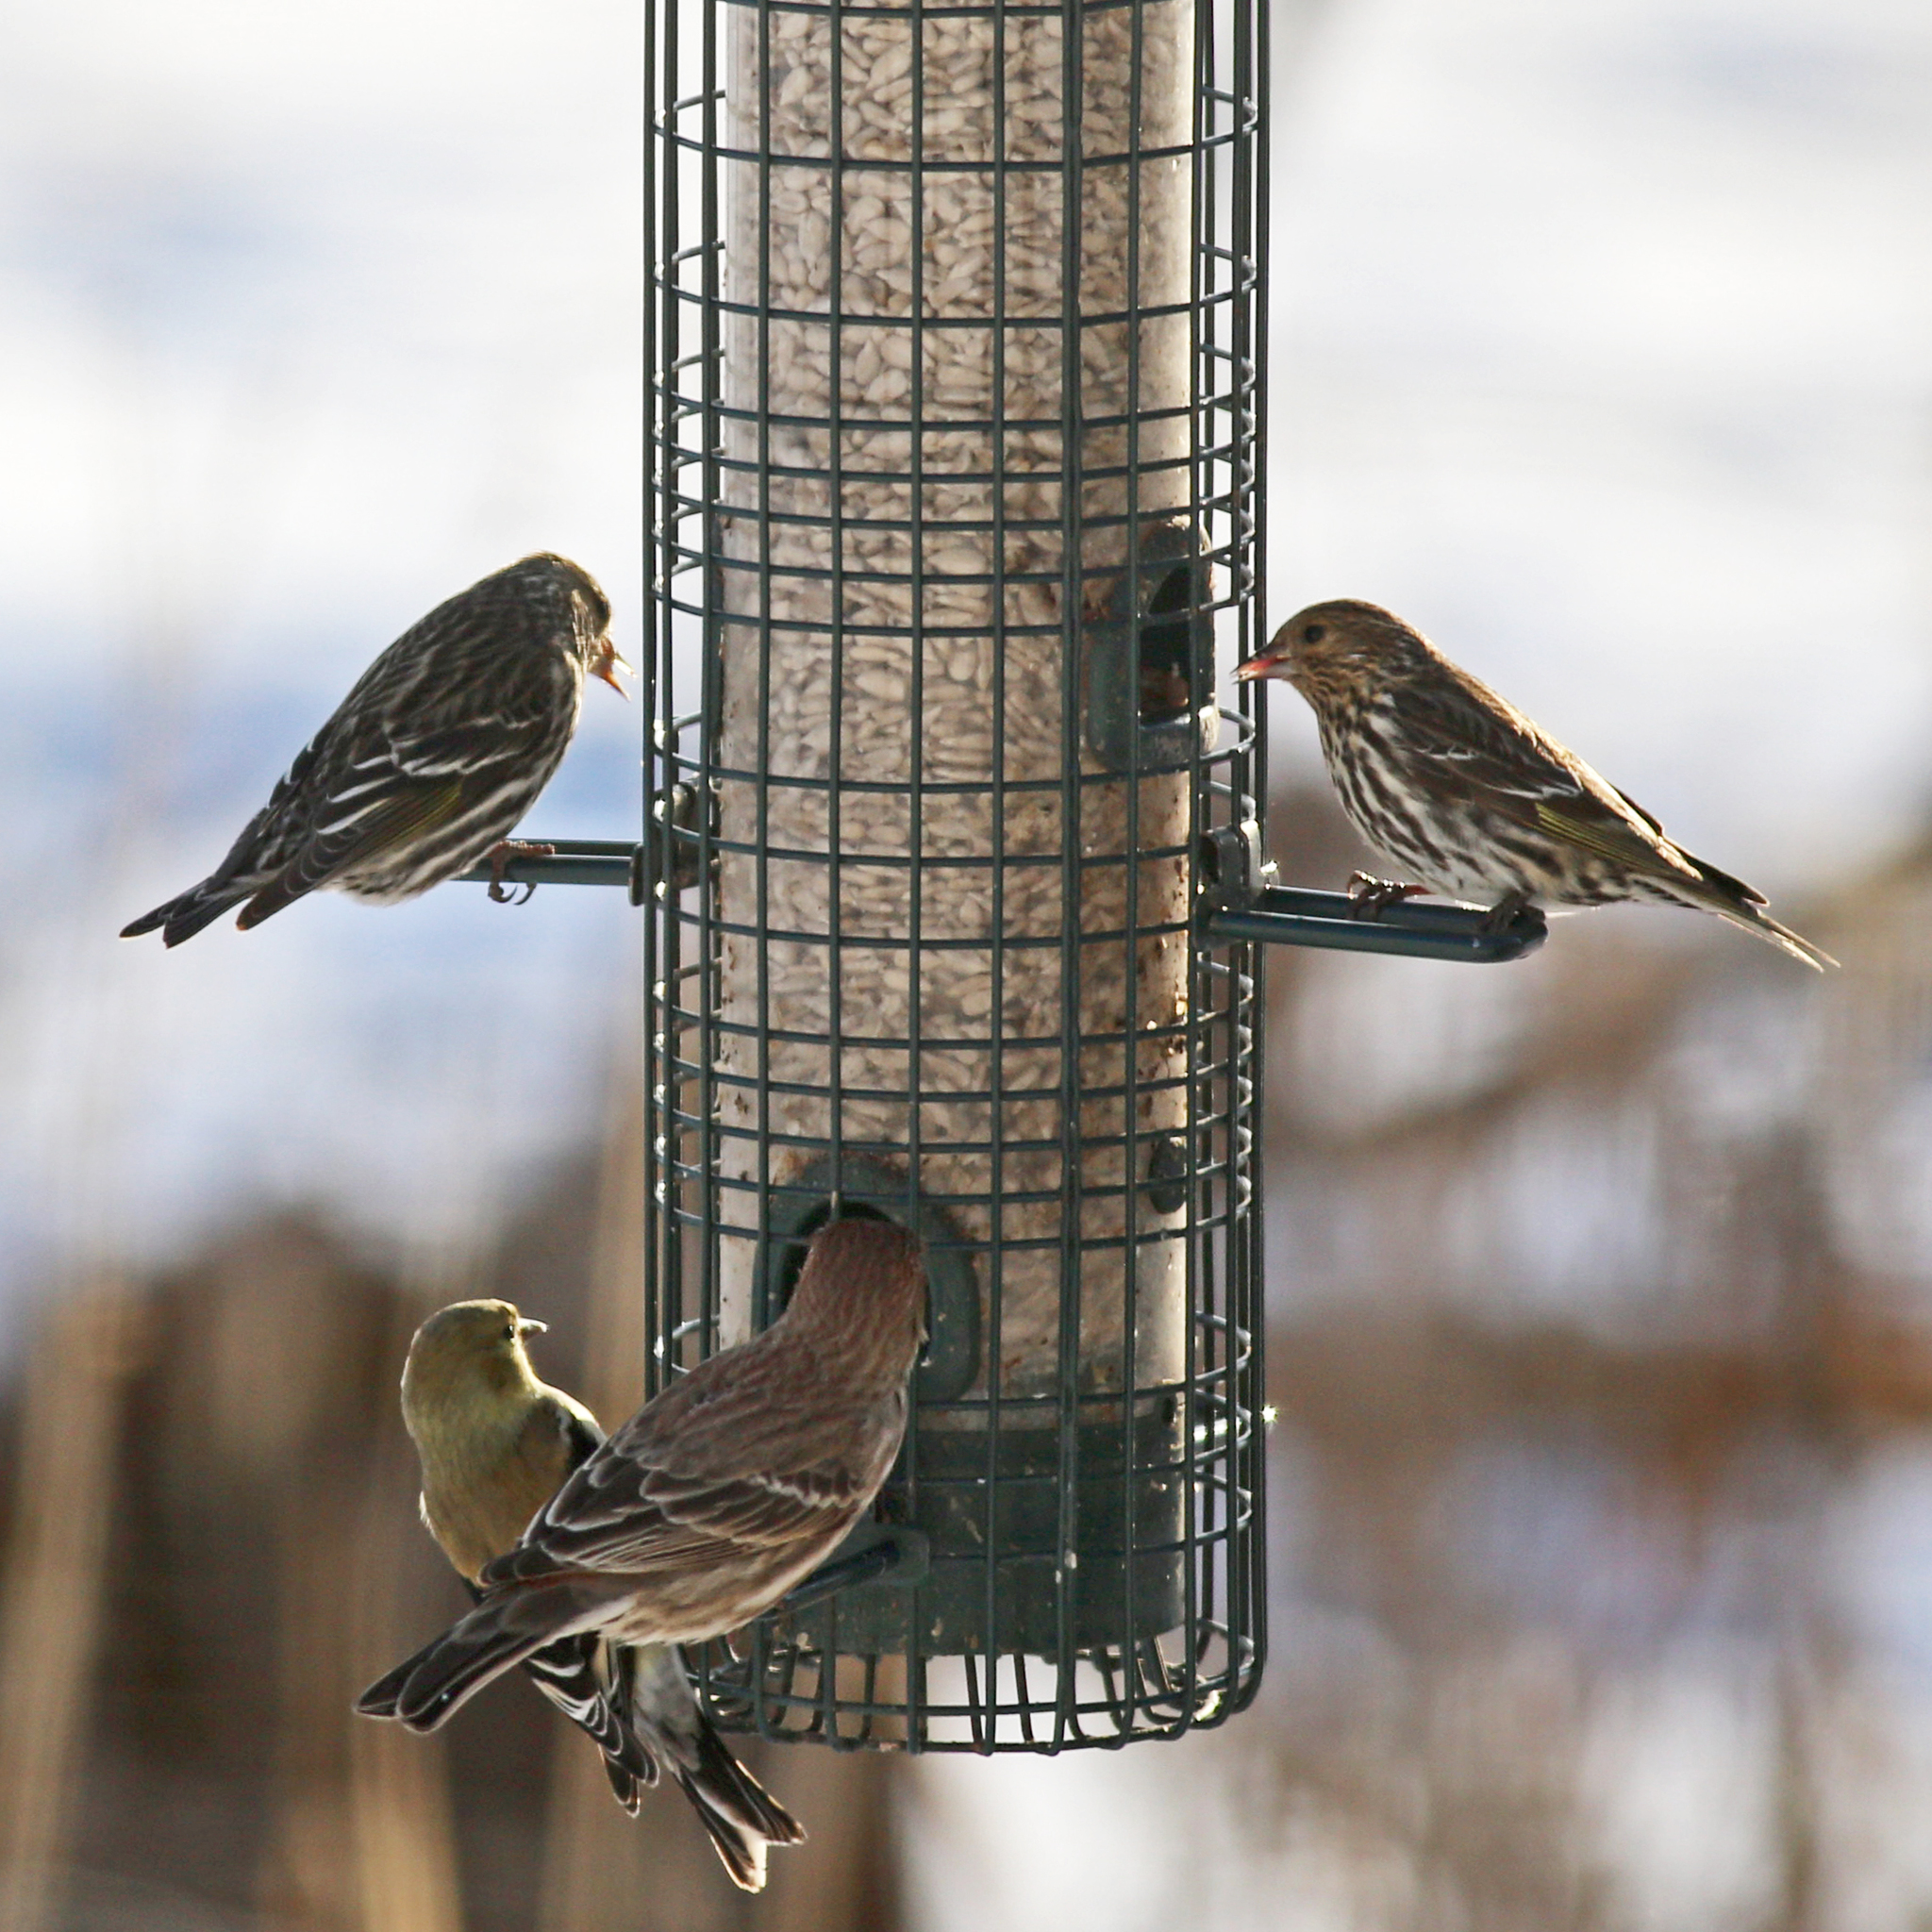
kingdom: Animalia
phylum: Chordata
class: Aves
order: Passeriformes
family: Fringillidae
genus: Spinus
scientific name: Spinus pinus
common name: Pine siskin
